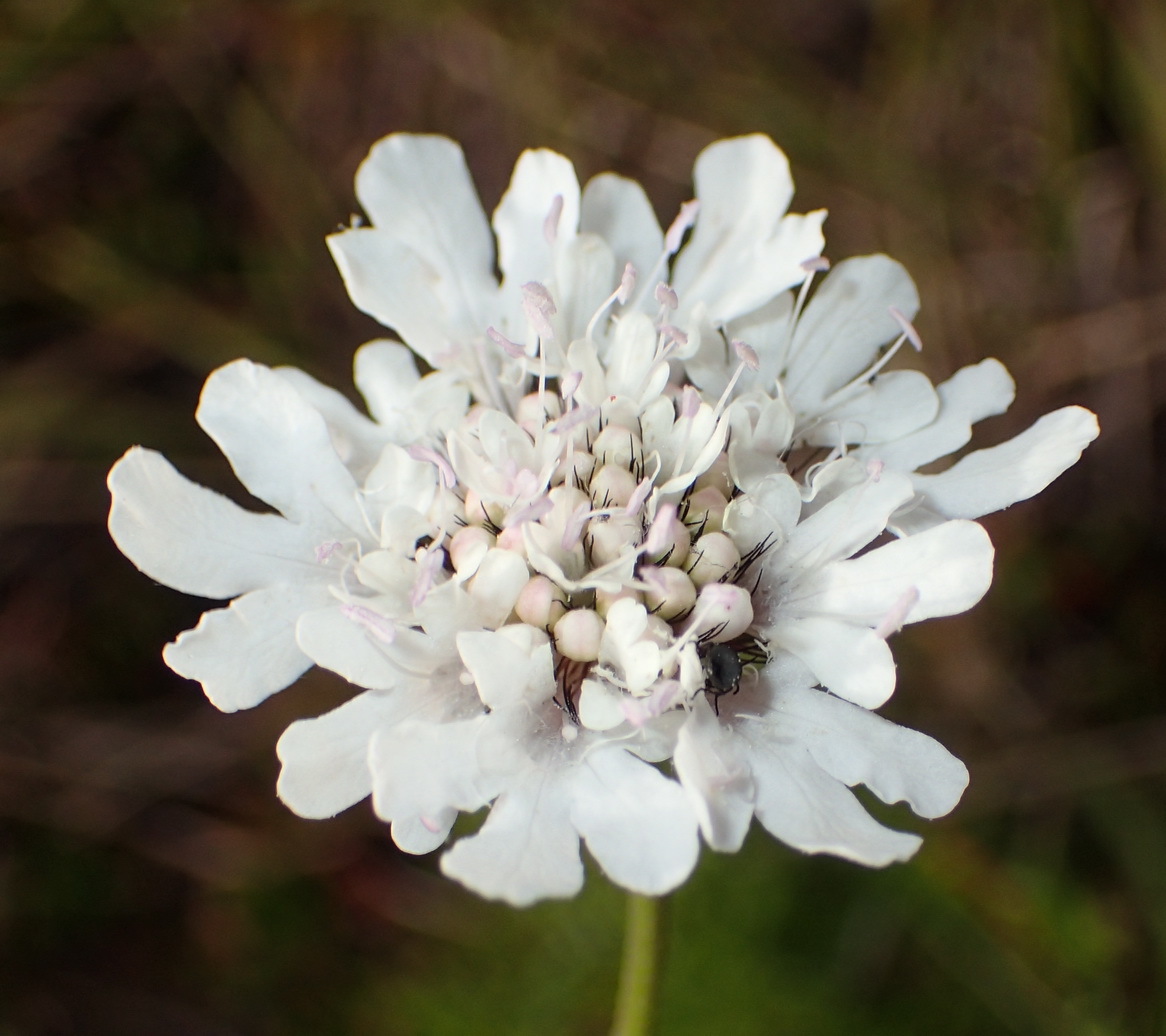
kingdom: Plantae
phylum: Tracheophyta
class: Magnoliopsida
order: Dipsacales
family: Caprifoliaceae
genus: Scabiosa
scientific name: Scabiosa columbaria
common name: Small scabious
